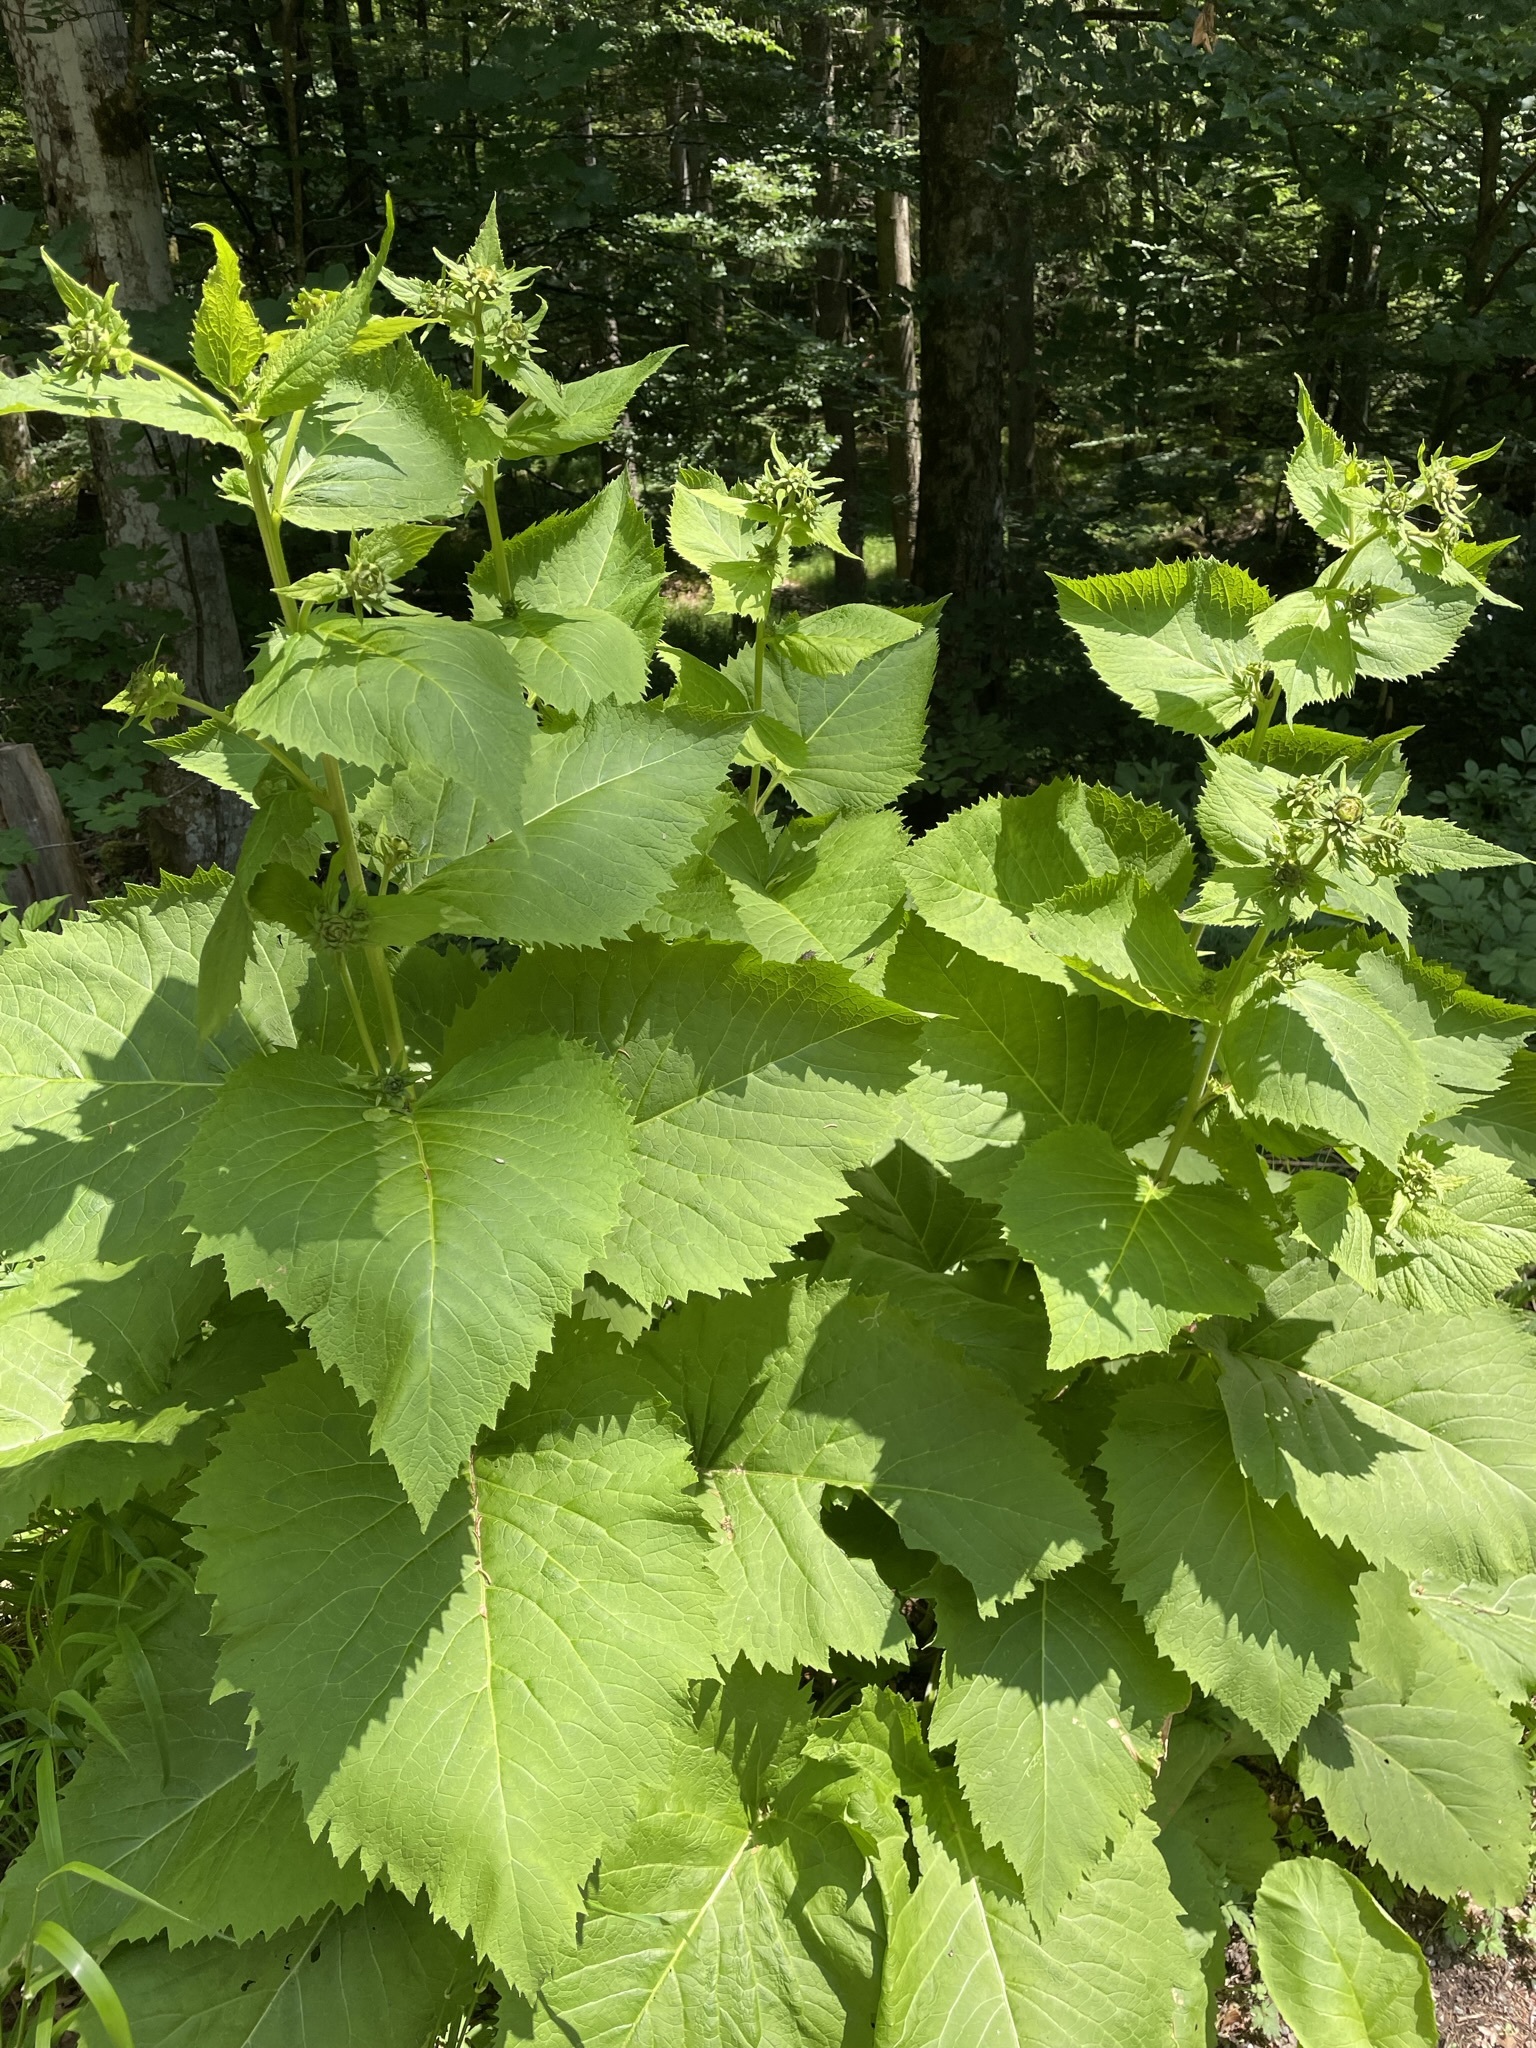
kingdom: Plantae
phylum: Tracheophyta
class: Magnoliopsida
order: Asterales
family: Asteraceae
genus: Telekia
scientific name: Telekia speciosa
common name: Yellow oxeye
